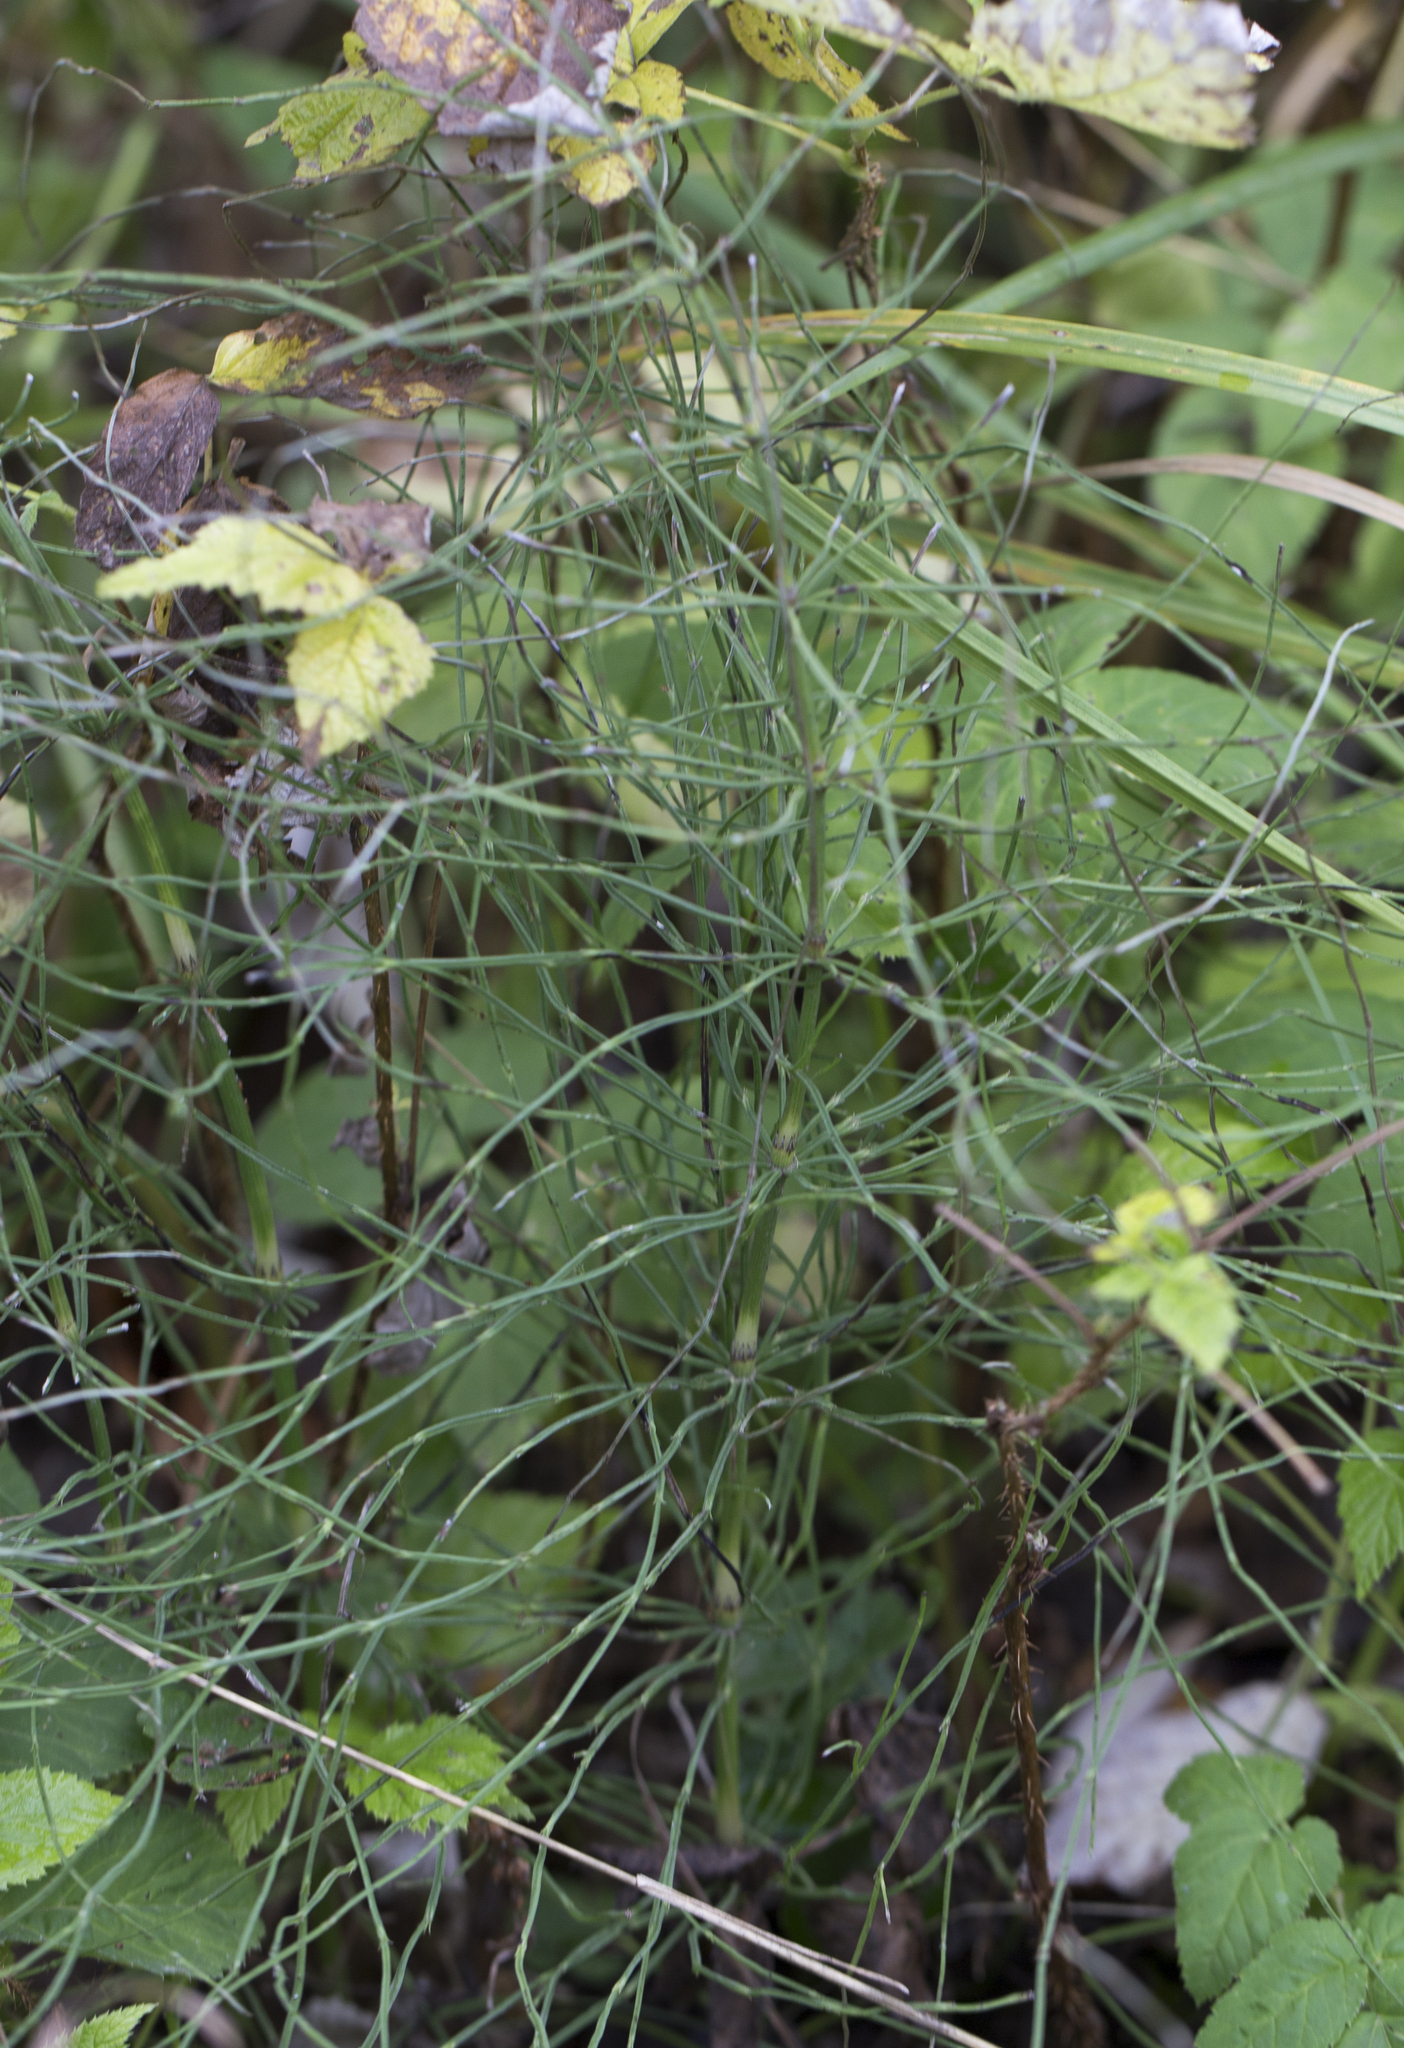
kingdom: Plantae
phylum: Tracheophyta
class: Polypodiopsida
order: Equisetales
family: Equisetaceae
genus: Equisetum
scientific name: Equisetum arvense
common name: Field horsetail
